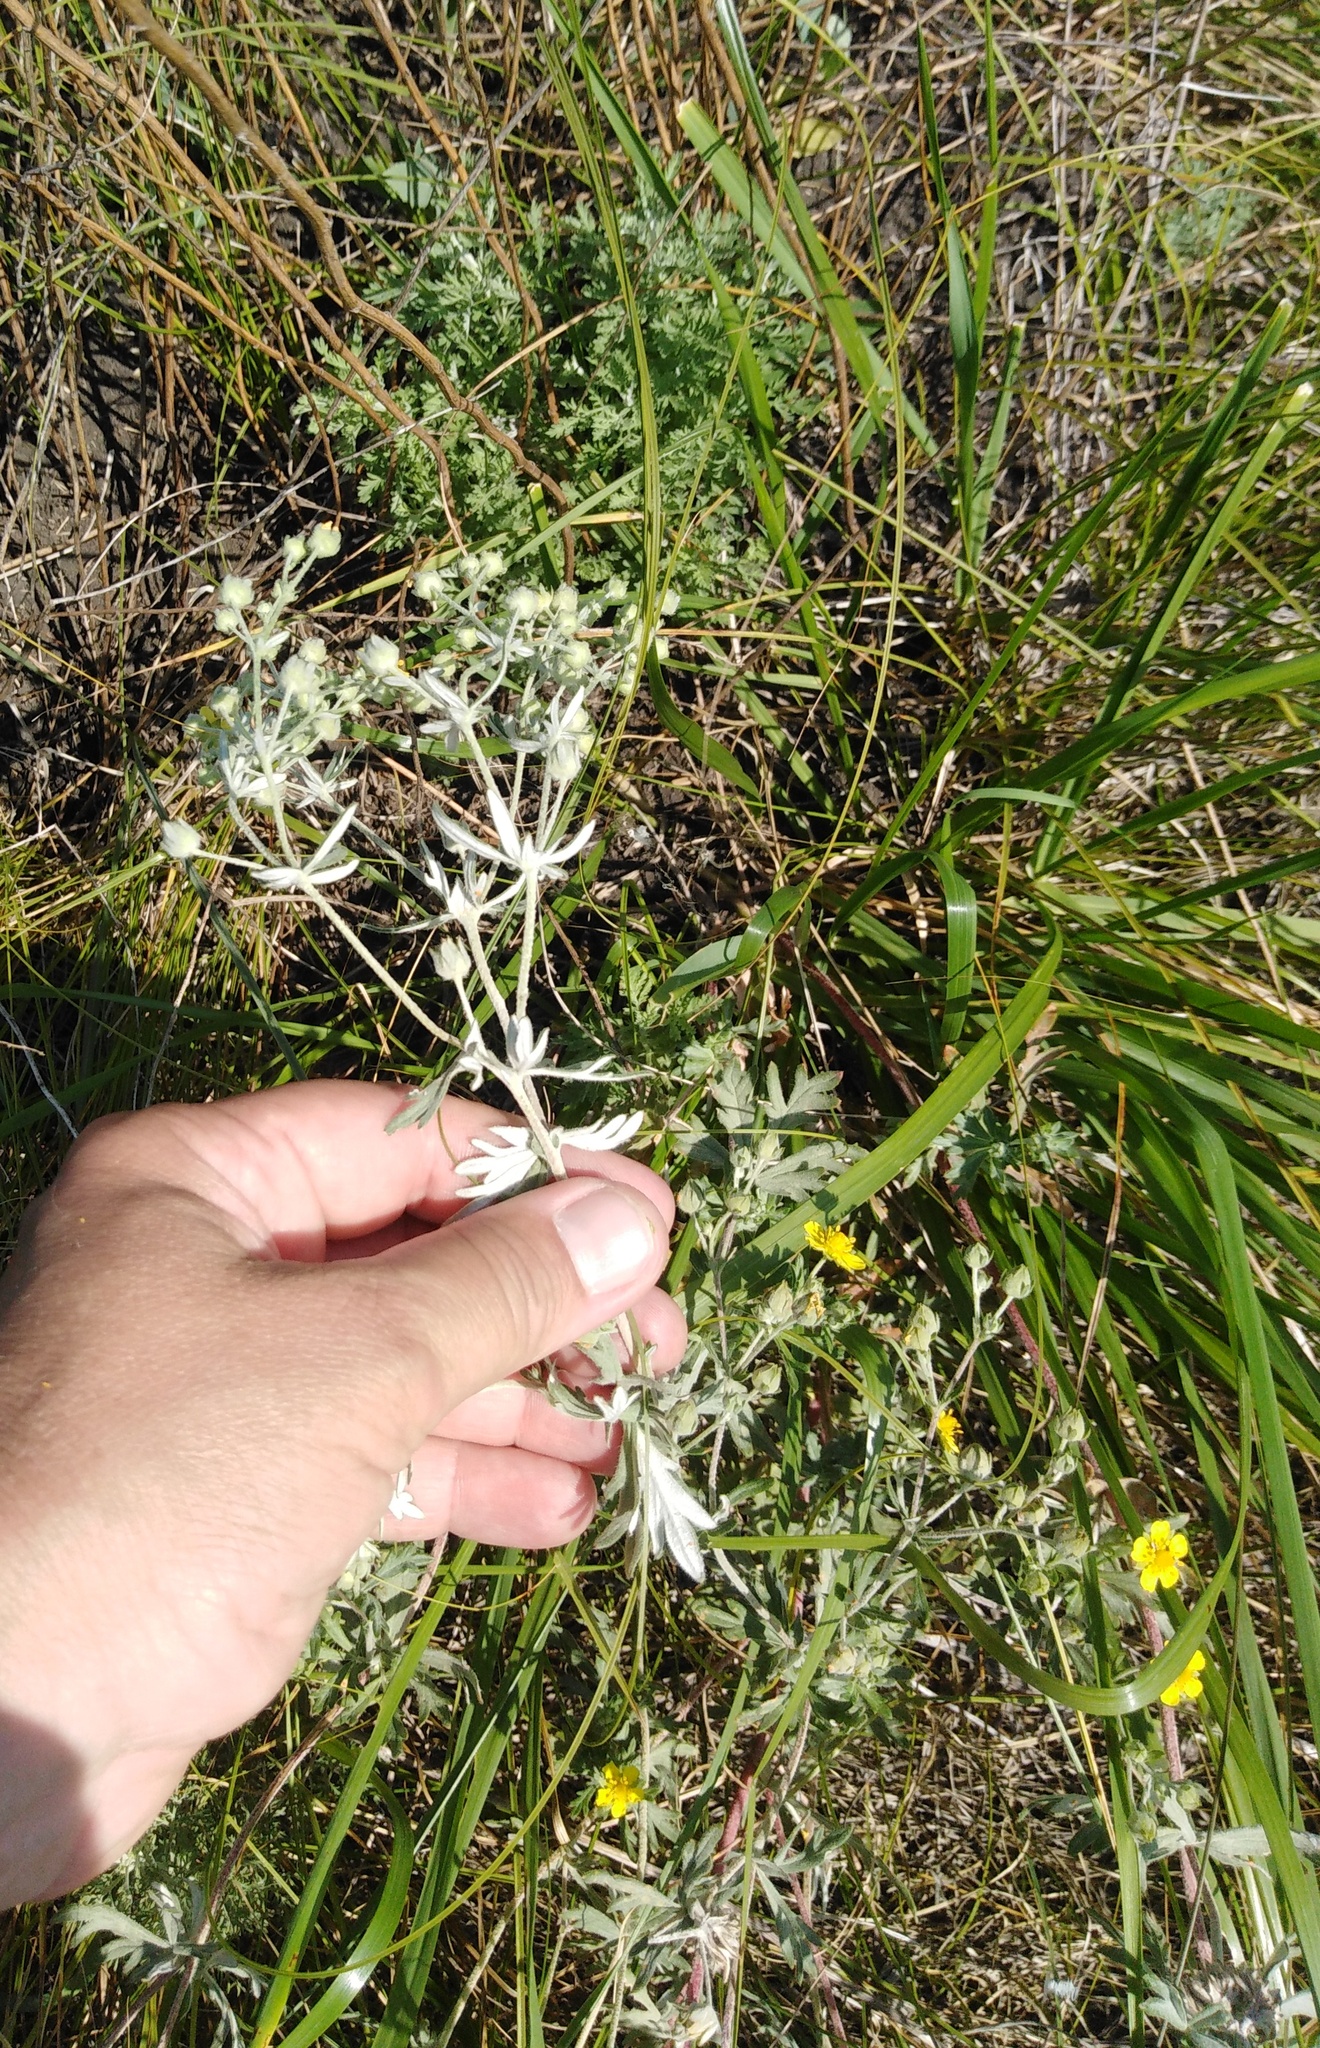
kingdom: Plantae
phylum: Tracheophyta
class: Magnoliopsida
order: Rosales
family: Rosaceae
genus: Potentilla
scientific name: Potentilla argentea
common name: Hoary cinquefoil
